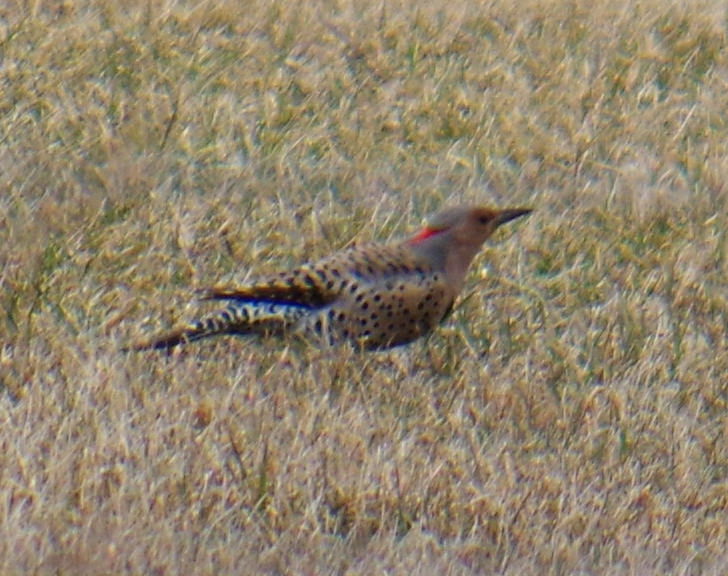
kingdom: Animalia
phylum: Chordata
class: Aves
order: Piciformes
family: Picidae
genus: Colaptes
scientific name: Colaptes auratus
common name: Northern flicker
